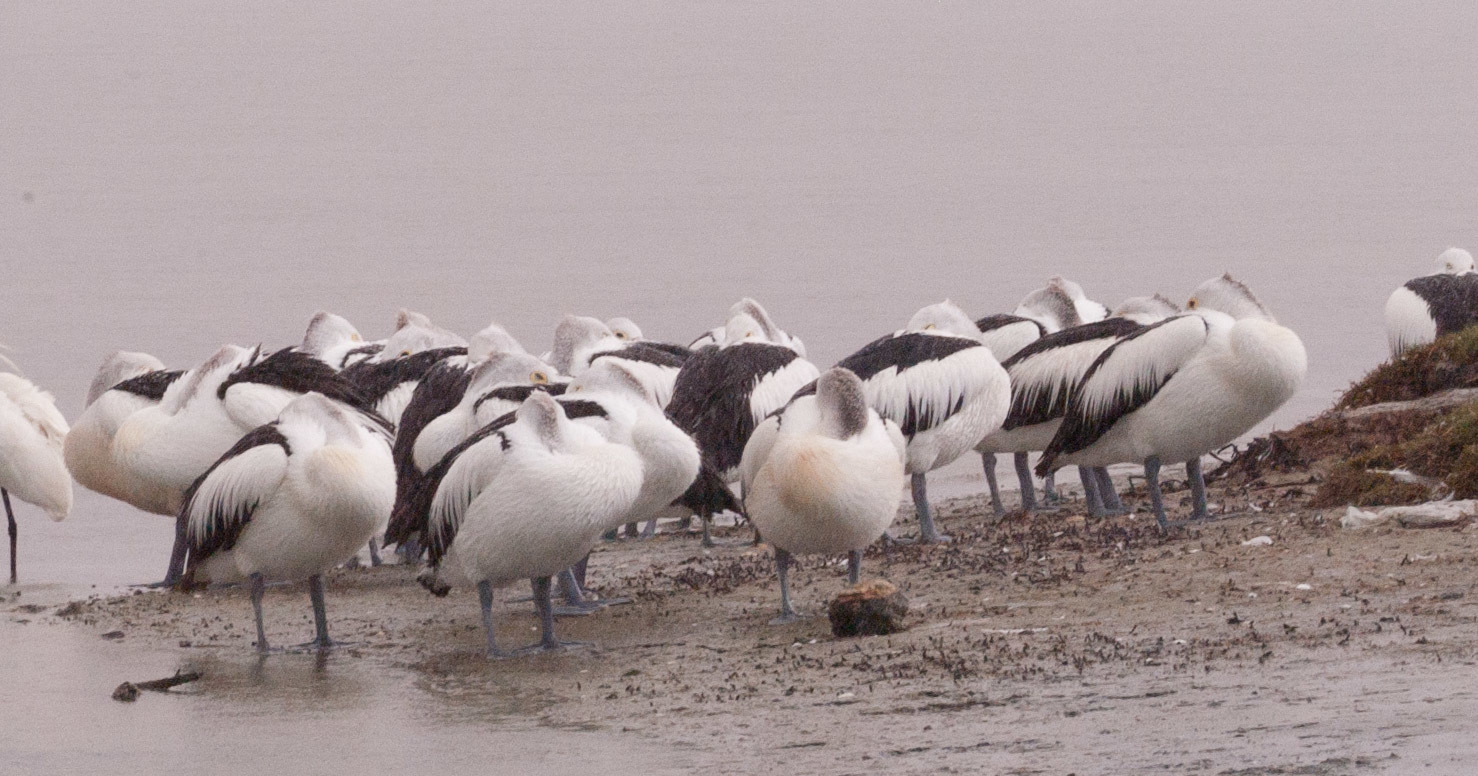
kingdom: Animalia
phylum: Chordata
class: Aves
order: Pelecaniformes
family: Pelecanidae
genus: Pelecanus
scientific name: Pelecanus conspicillatus
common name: Australian pelican
